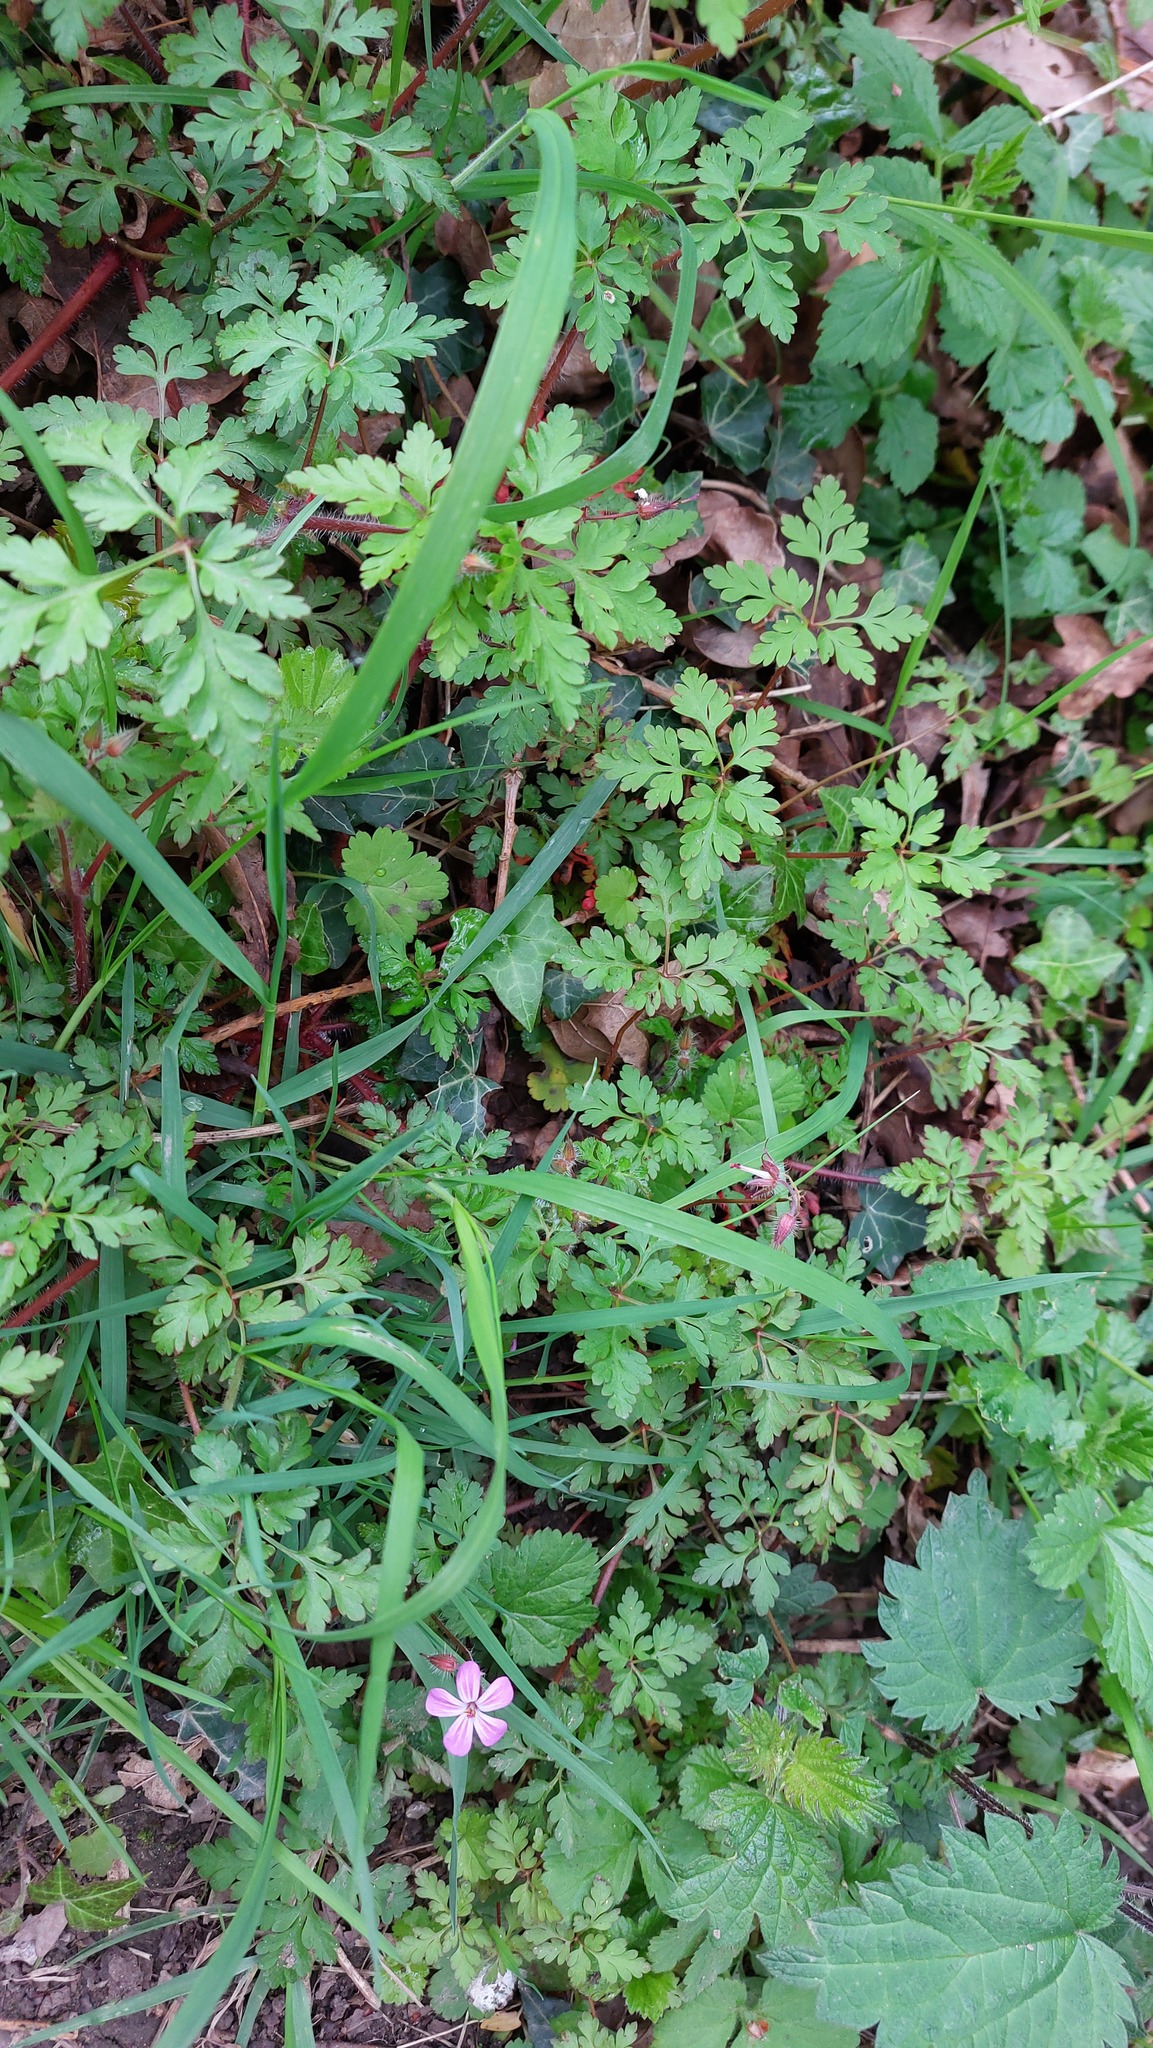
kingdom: Plantae
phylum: Tracheophyta
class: Magnoliopsida
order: Geraniales
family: Geraniaceae
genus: Geranium
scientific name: Geranium robertianum
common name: Herb-robert
